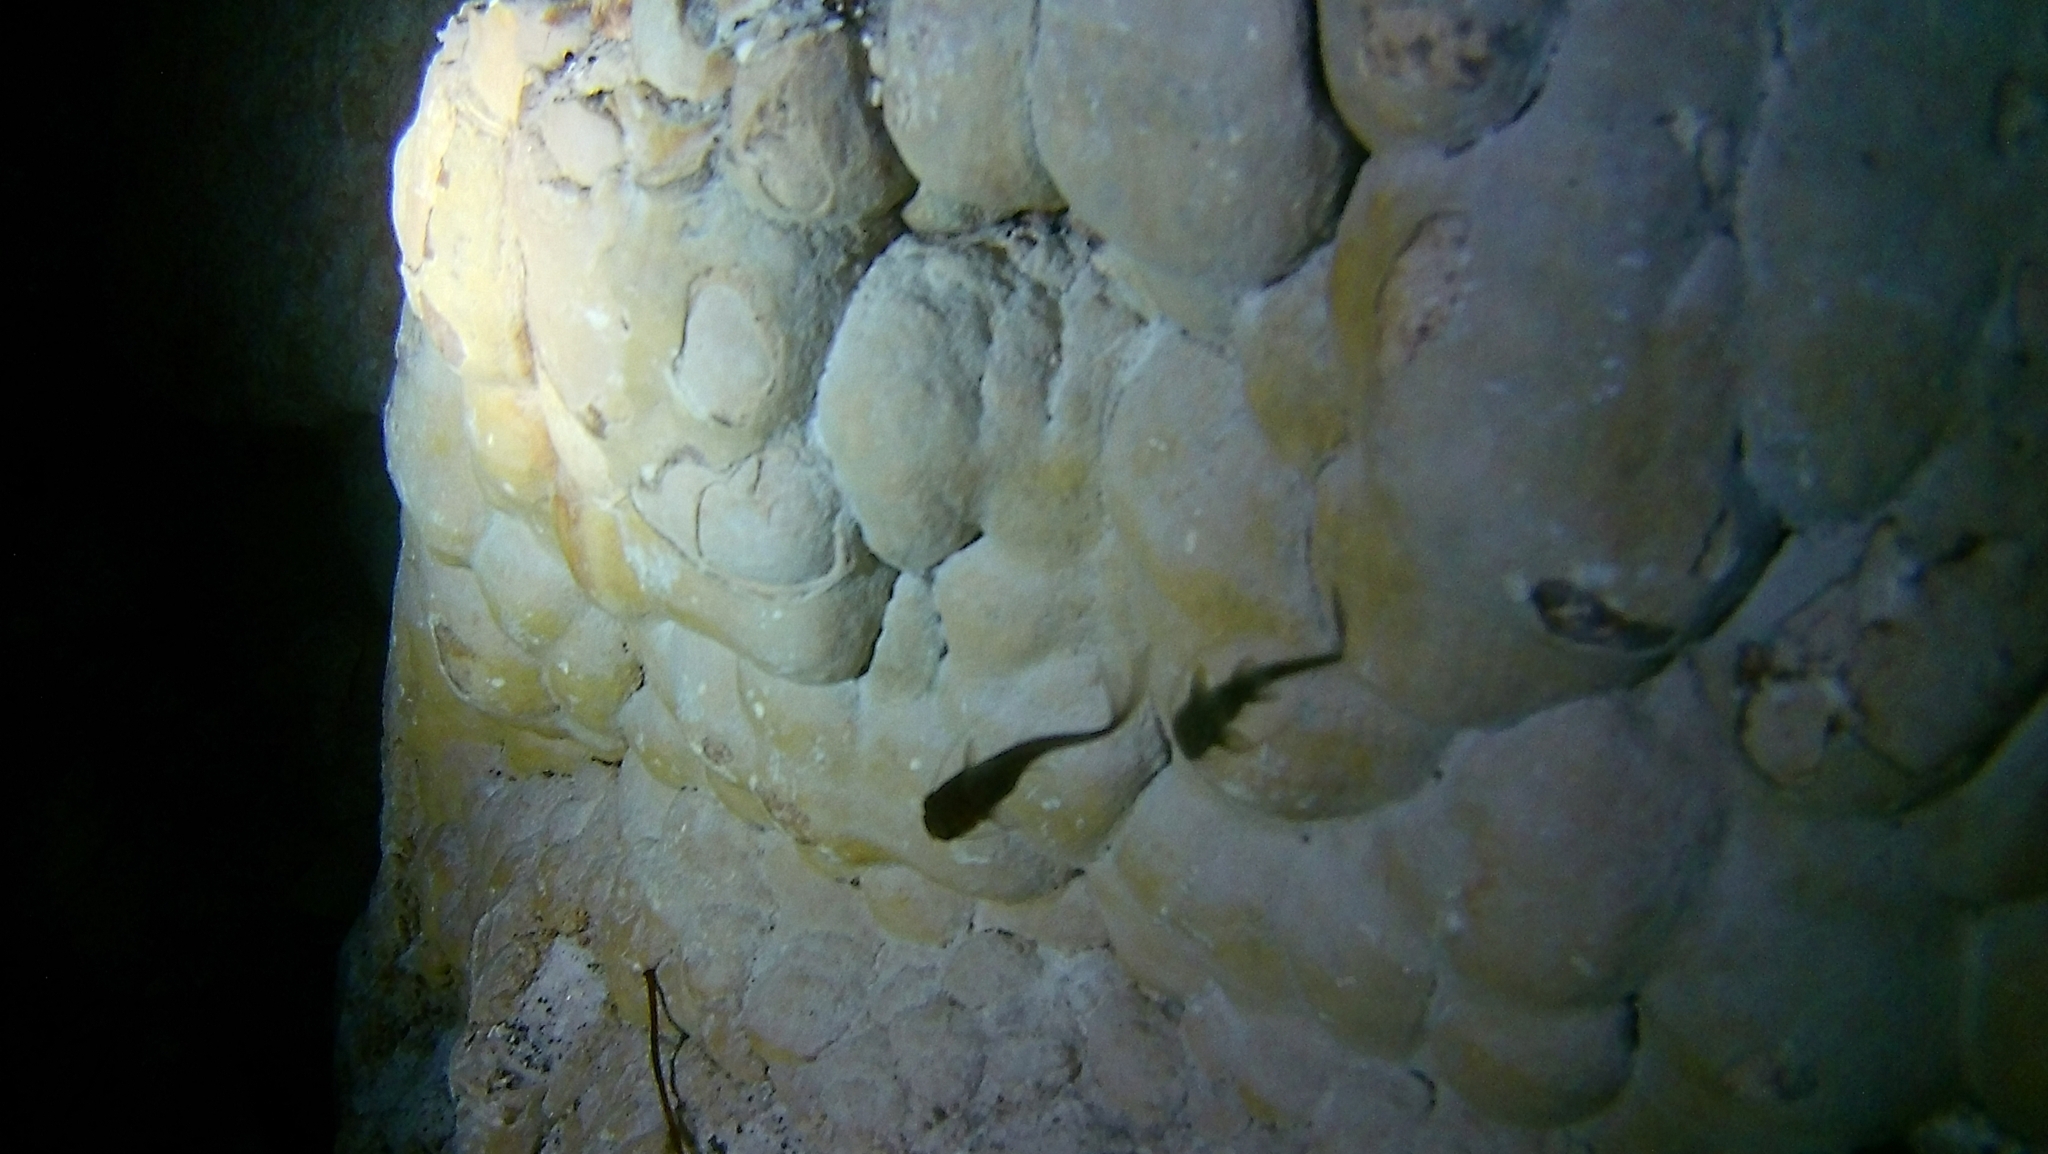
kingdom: Animalia
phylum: Chordata
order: Siluriformes
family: Heptapteridae
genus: Rhamdia
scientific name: Rhamdia guatemalensis
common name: Pale catfish
